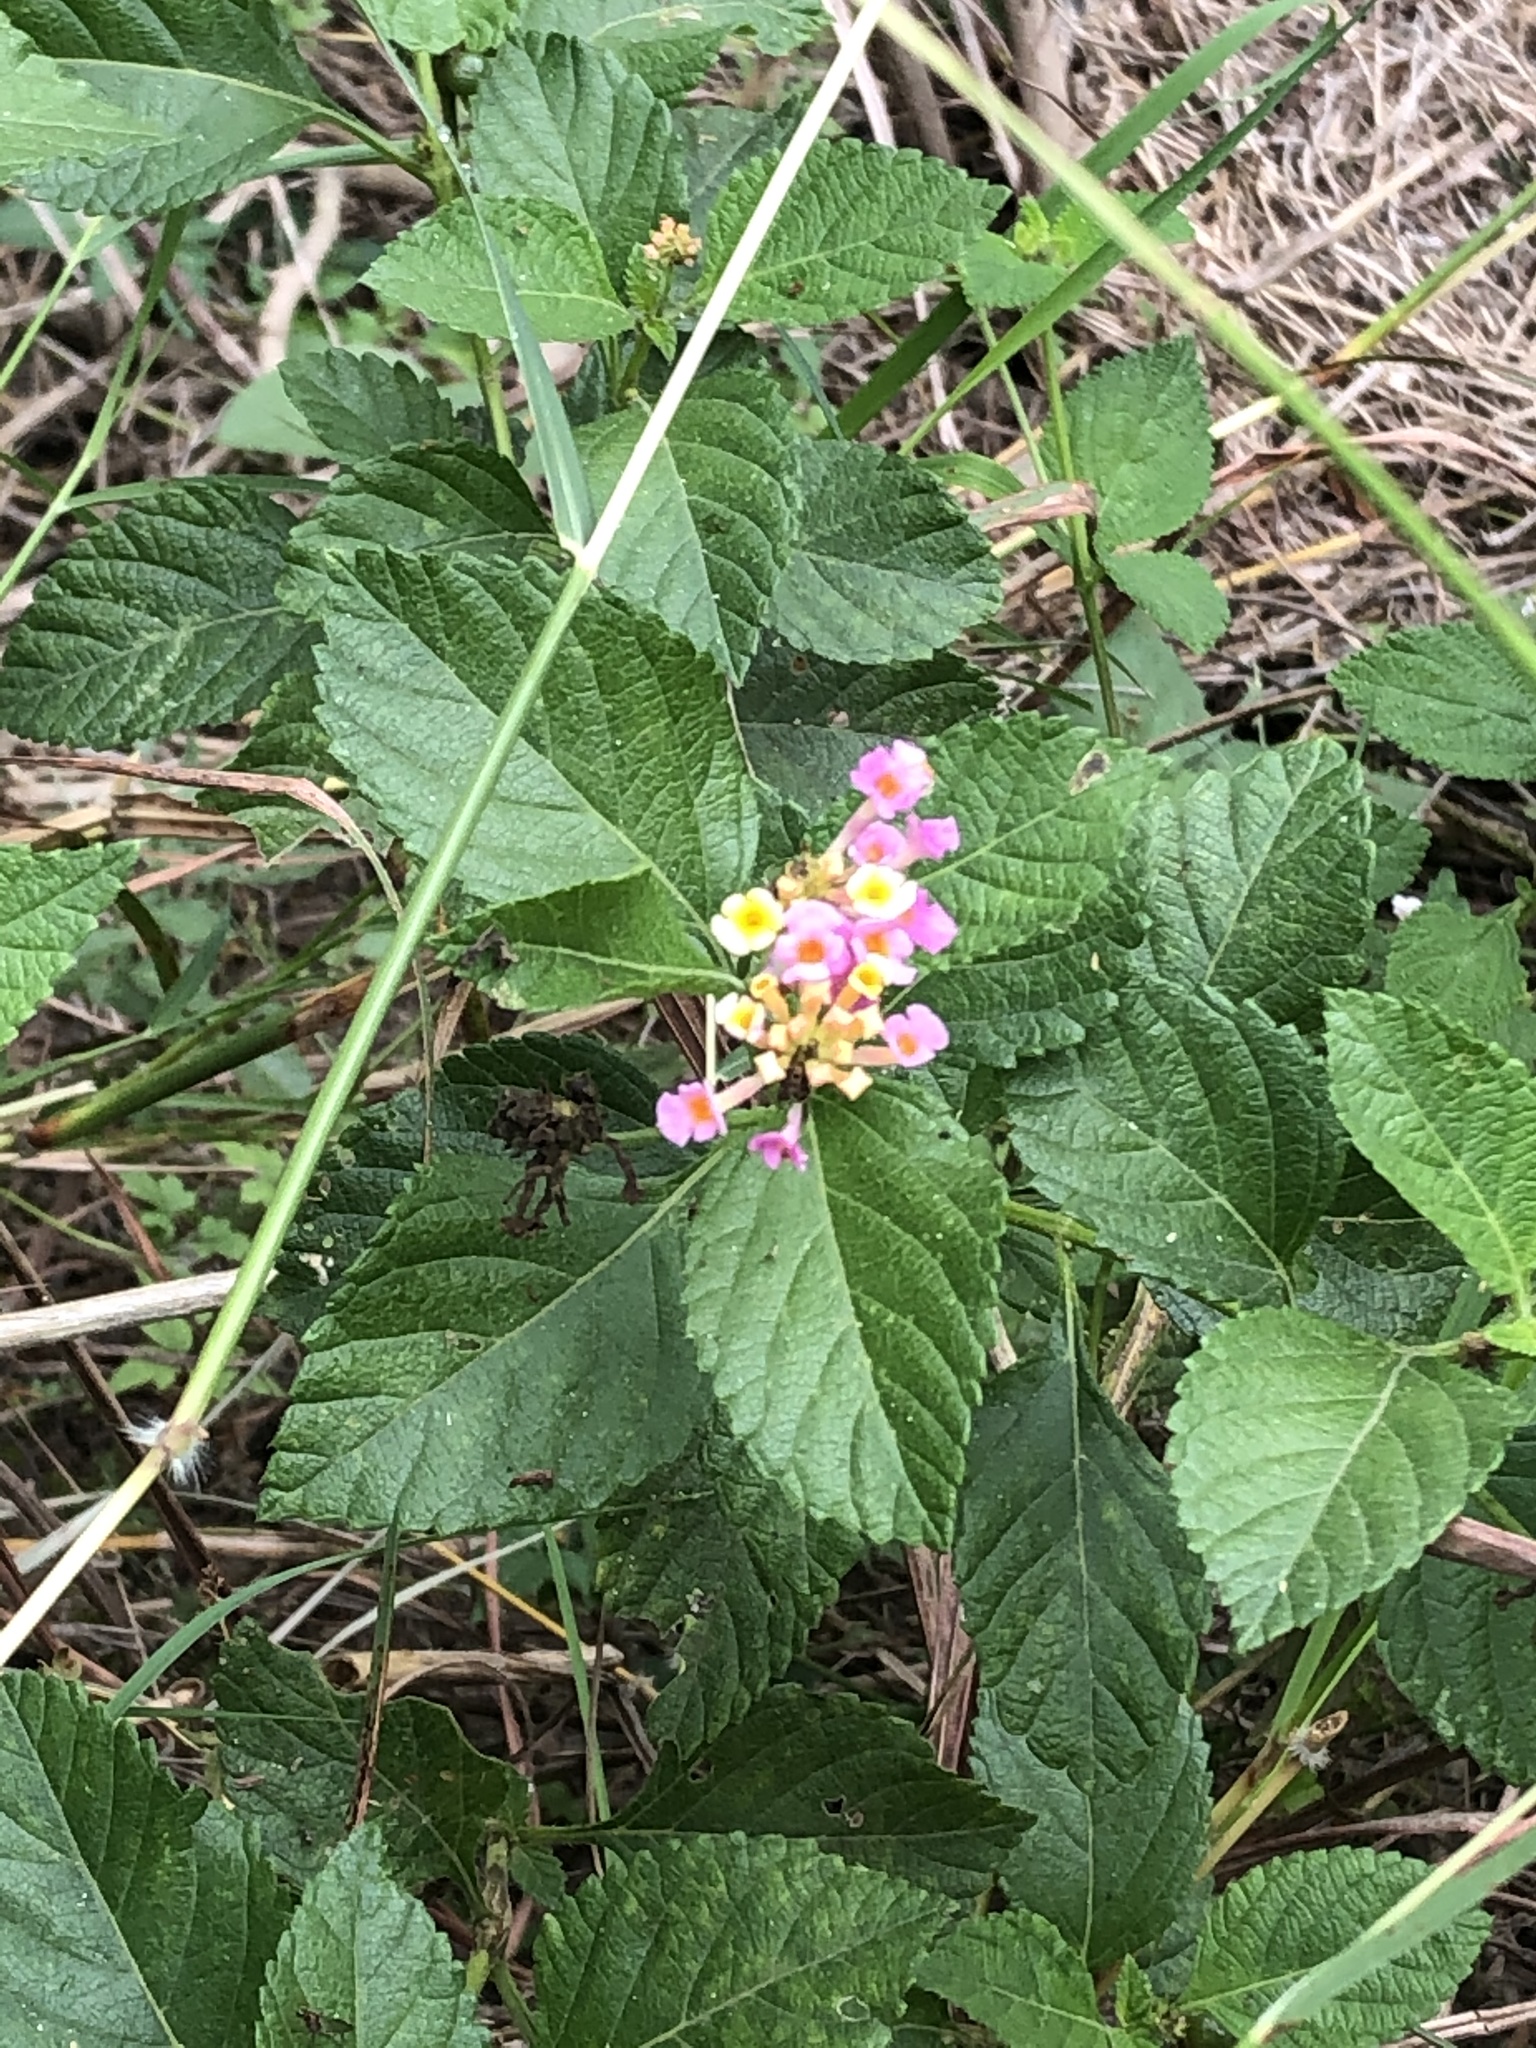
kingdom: Plantae
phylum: Tracheophyta
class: Magnoliopsida
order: Lamiales
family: Verbenaceae
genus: Lantana
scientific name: Lantana strigocamara
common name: Lantana
